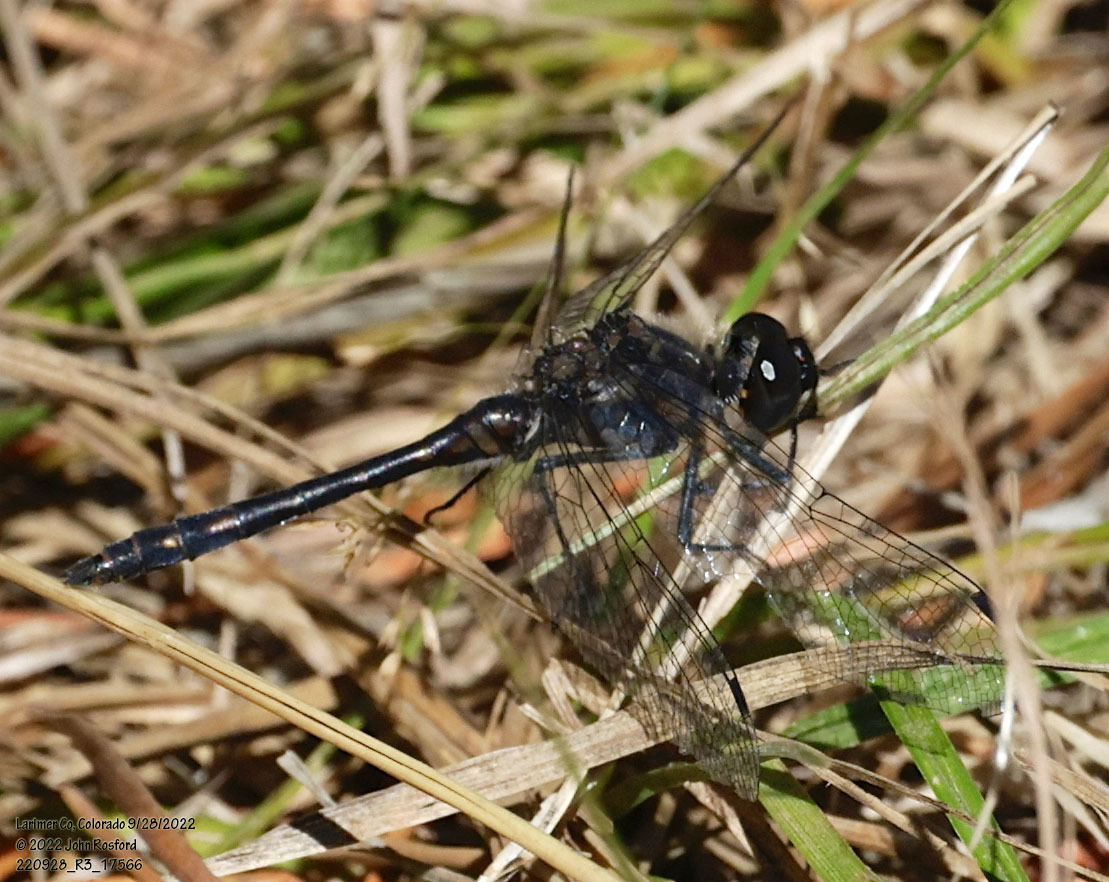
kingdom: Animalia
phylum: Arthropoda
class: Insecta
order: Odonata
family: Libellulidae
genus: Sympetrum
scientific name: Sympetrum danae
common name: Black darter
